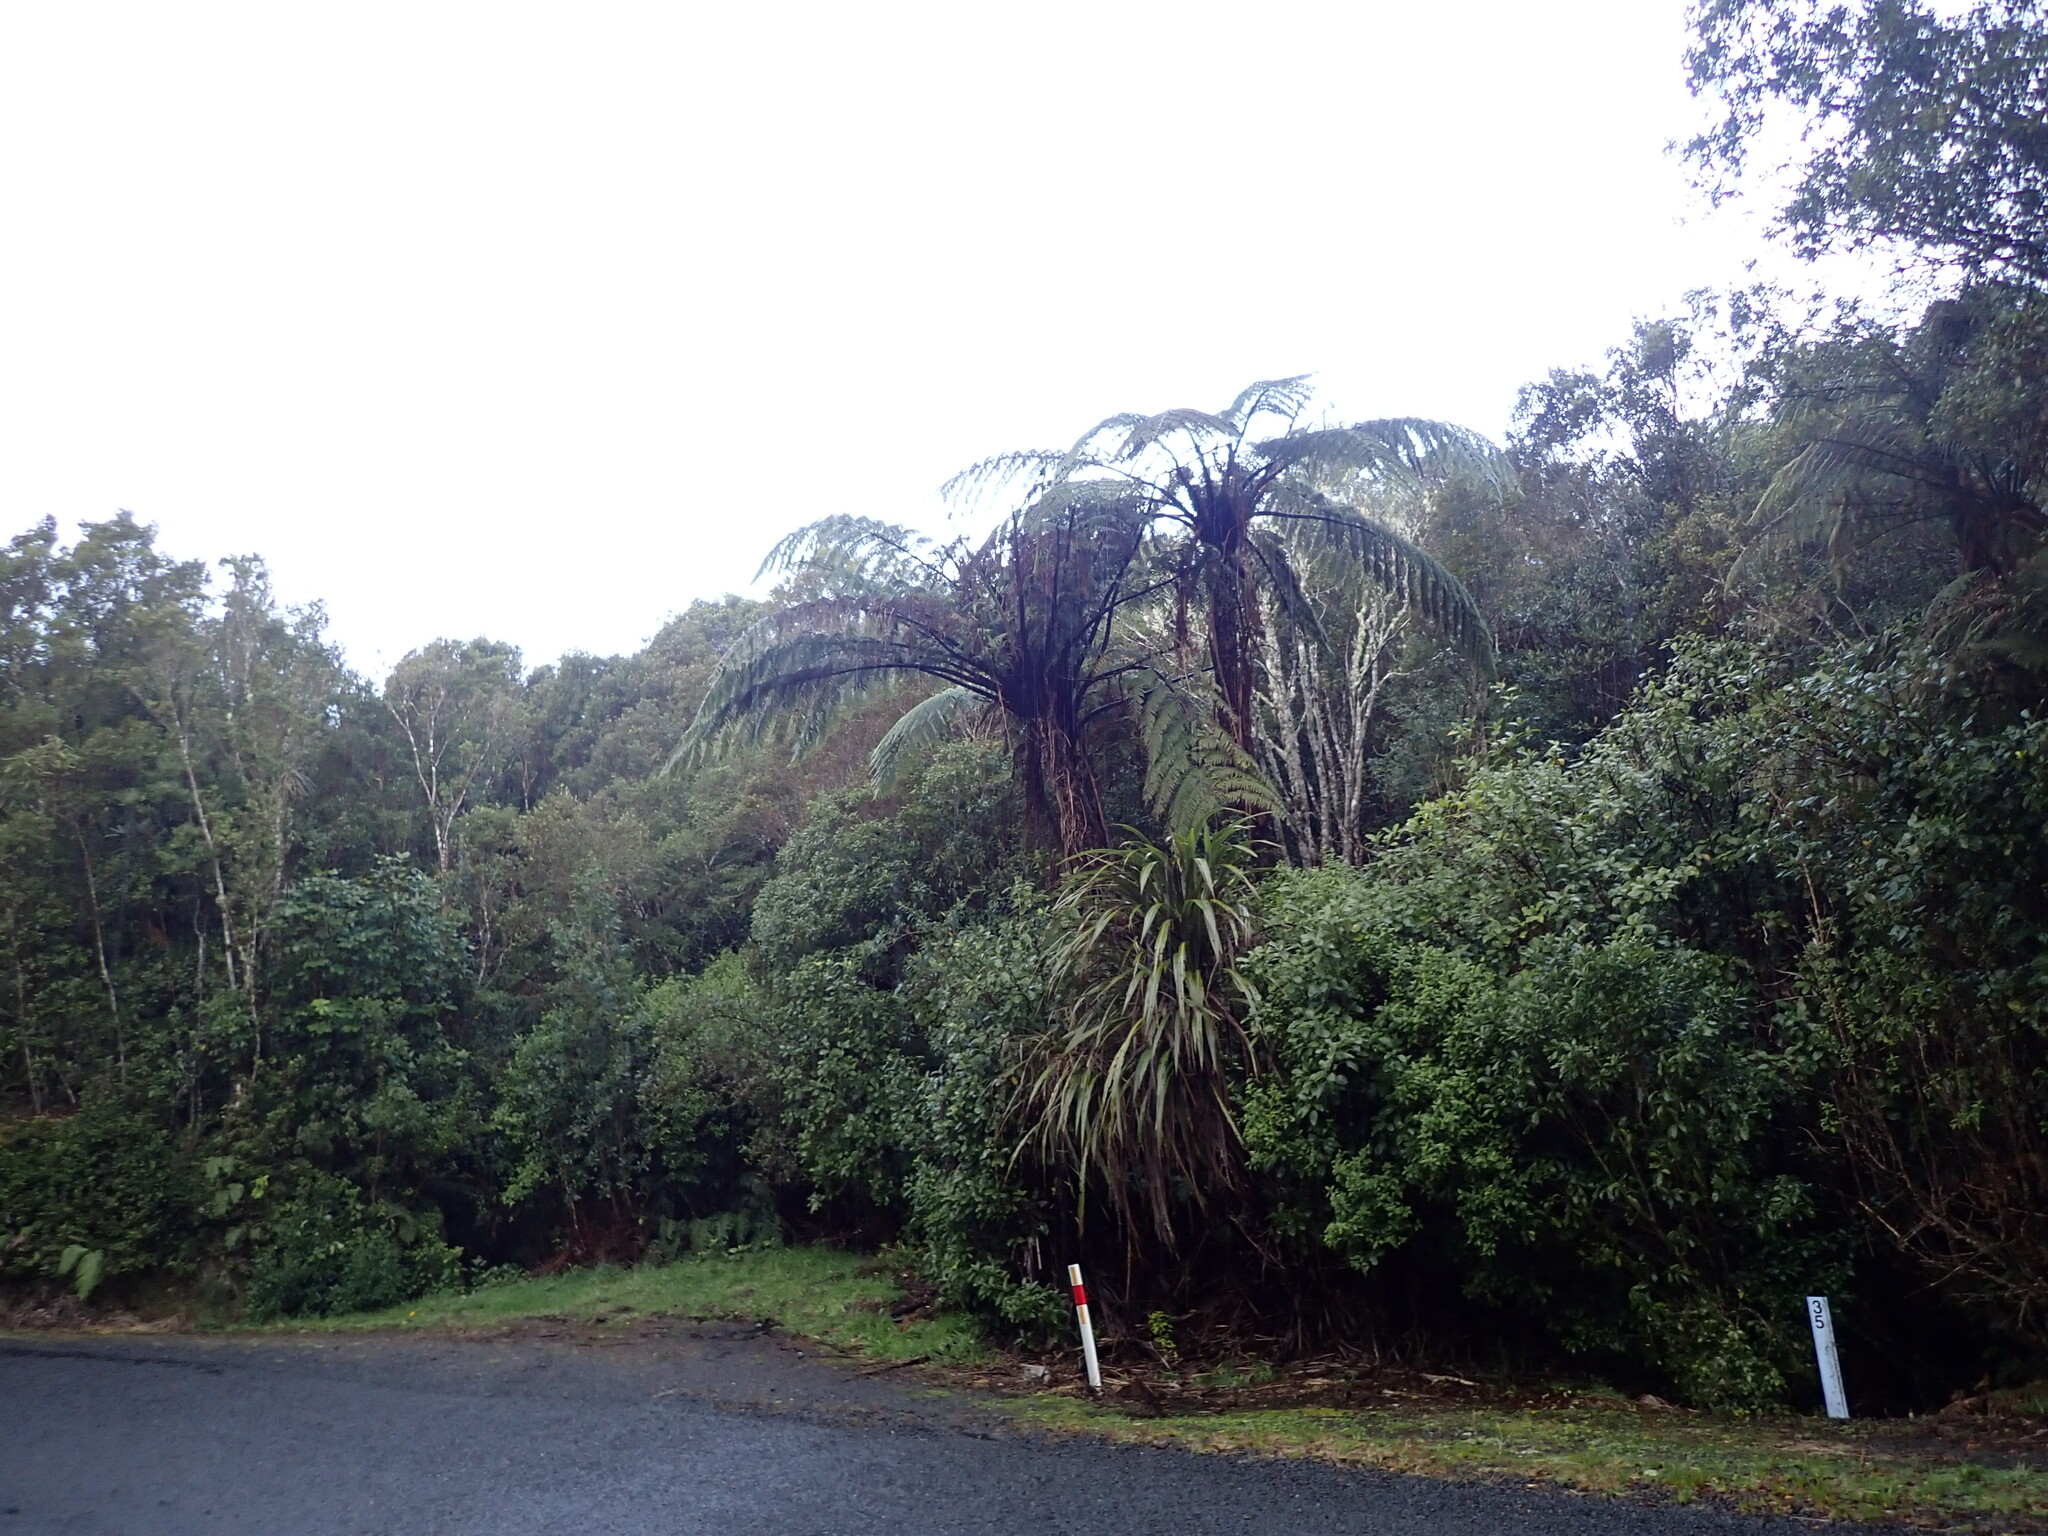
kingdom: Plantae
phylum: Tracheophyta
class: Polypodiopsida
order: Cyatheales
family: Cyatheaceae
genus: Sphaeropteris
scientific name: Sphaeropteris medullaris
